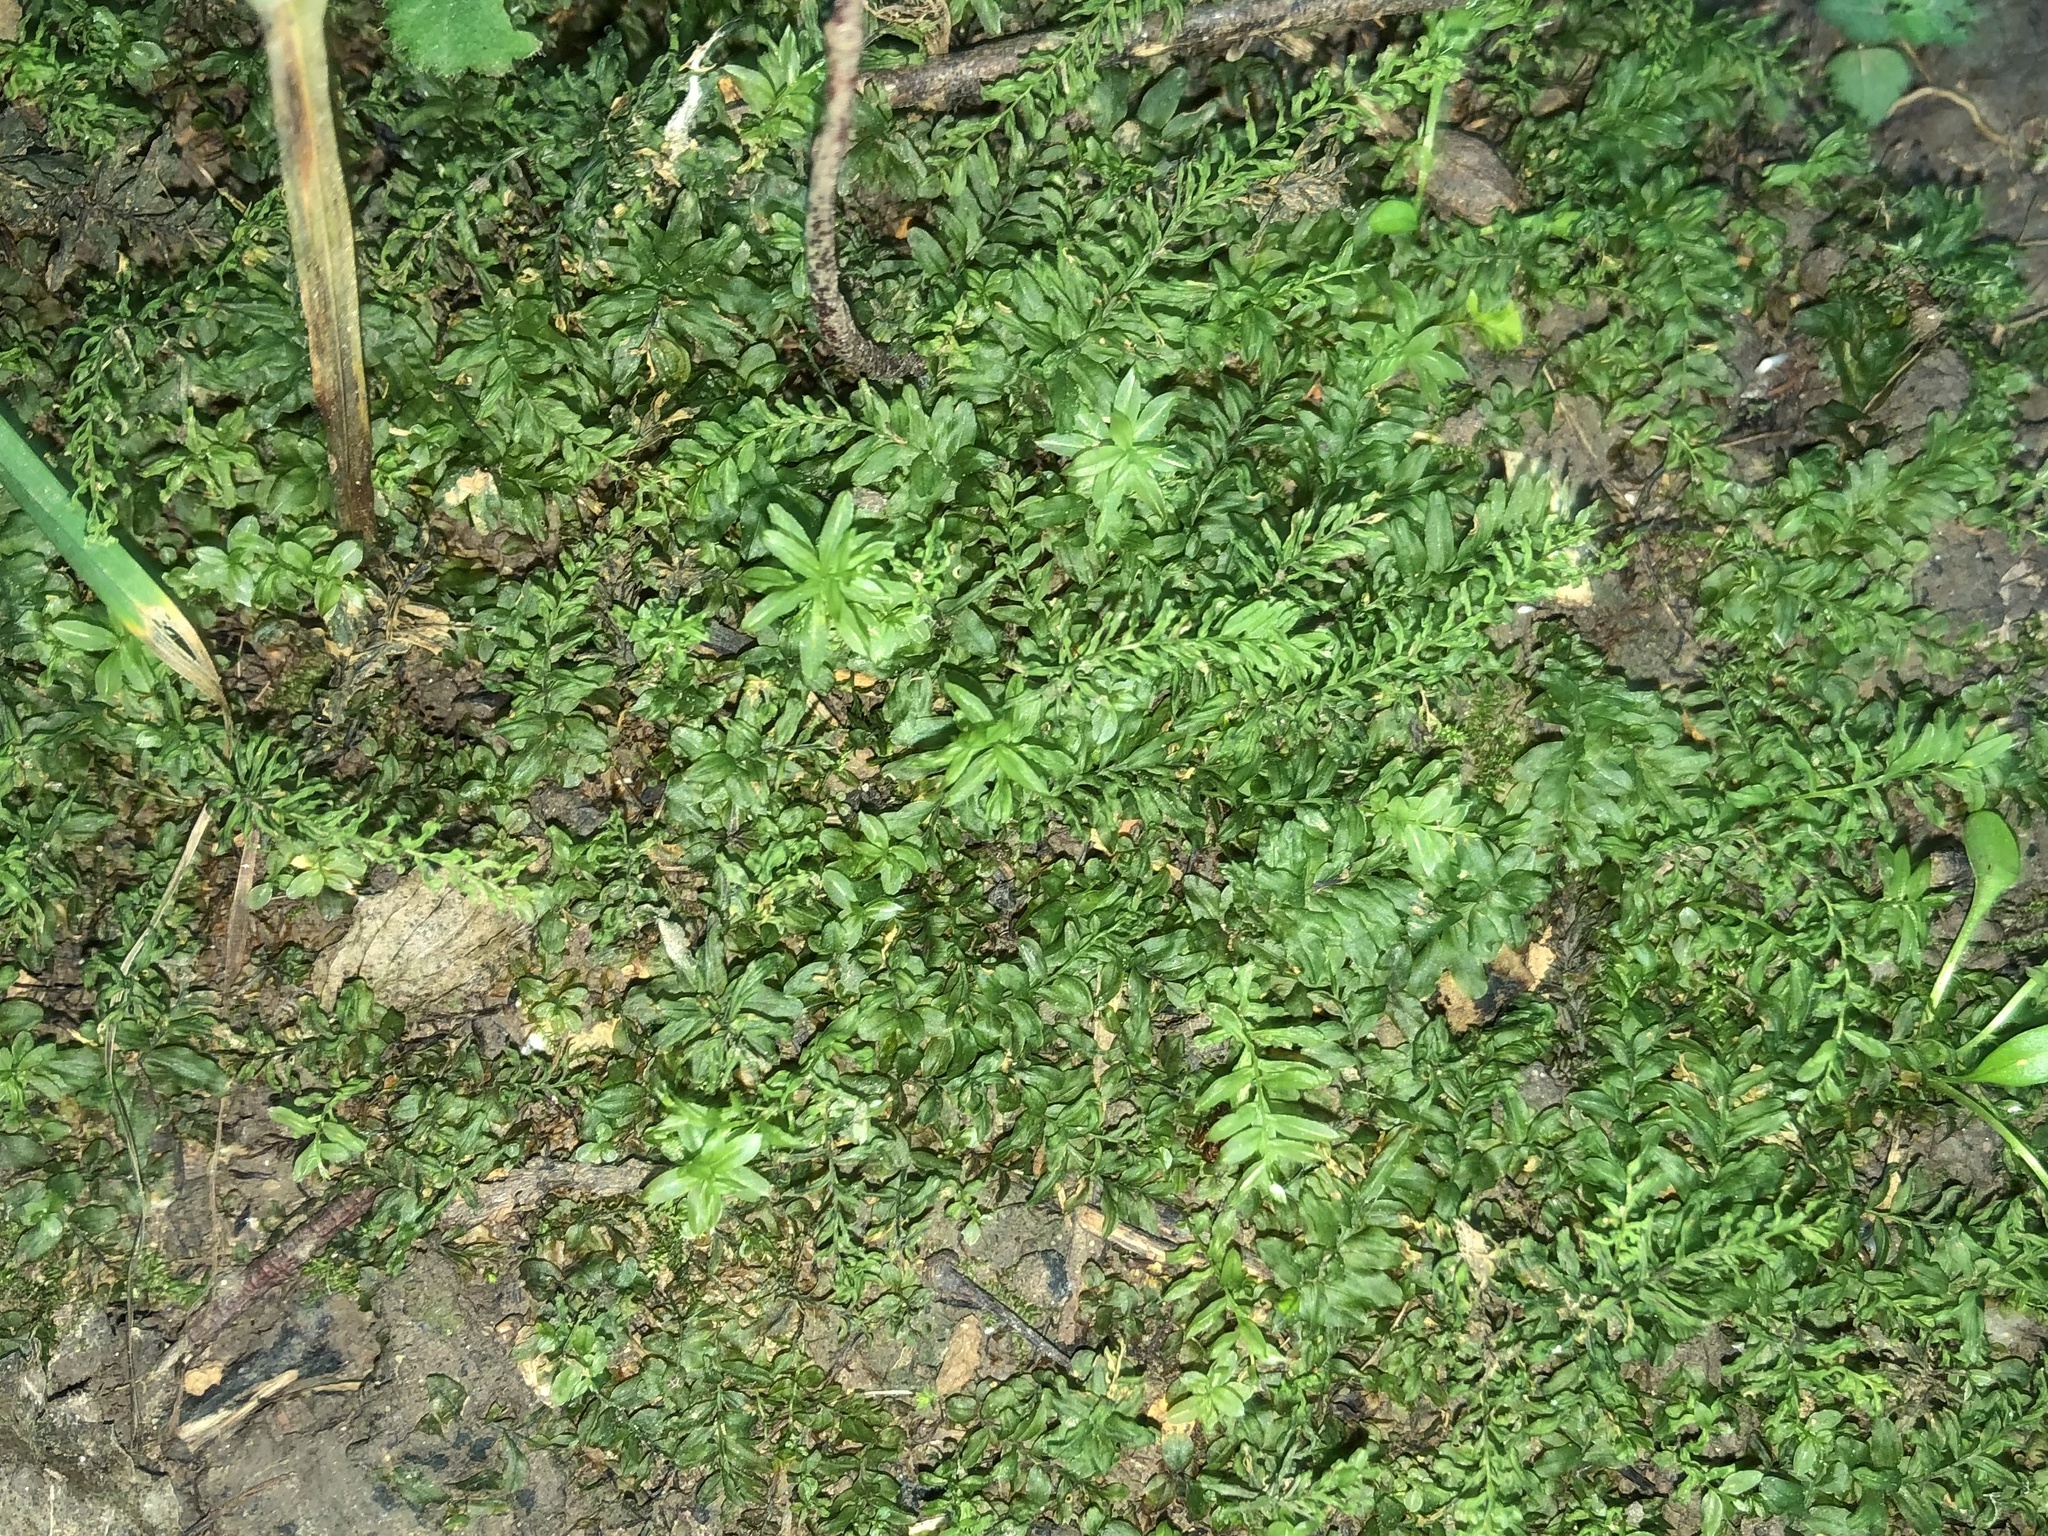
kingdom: Plantae
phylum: Bryophyta
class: Bryopsida
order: Bryales
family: Mniaceae
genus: Plagiomnium
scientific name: Plagiomnium undulatum
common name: Hart's-tongue thyme-moss
